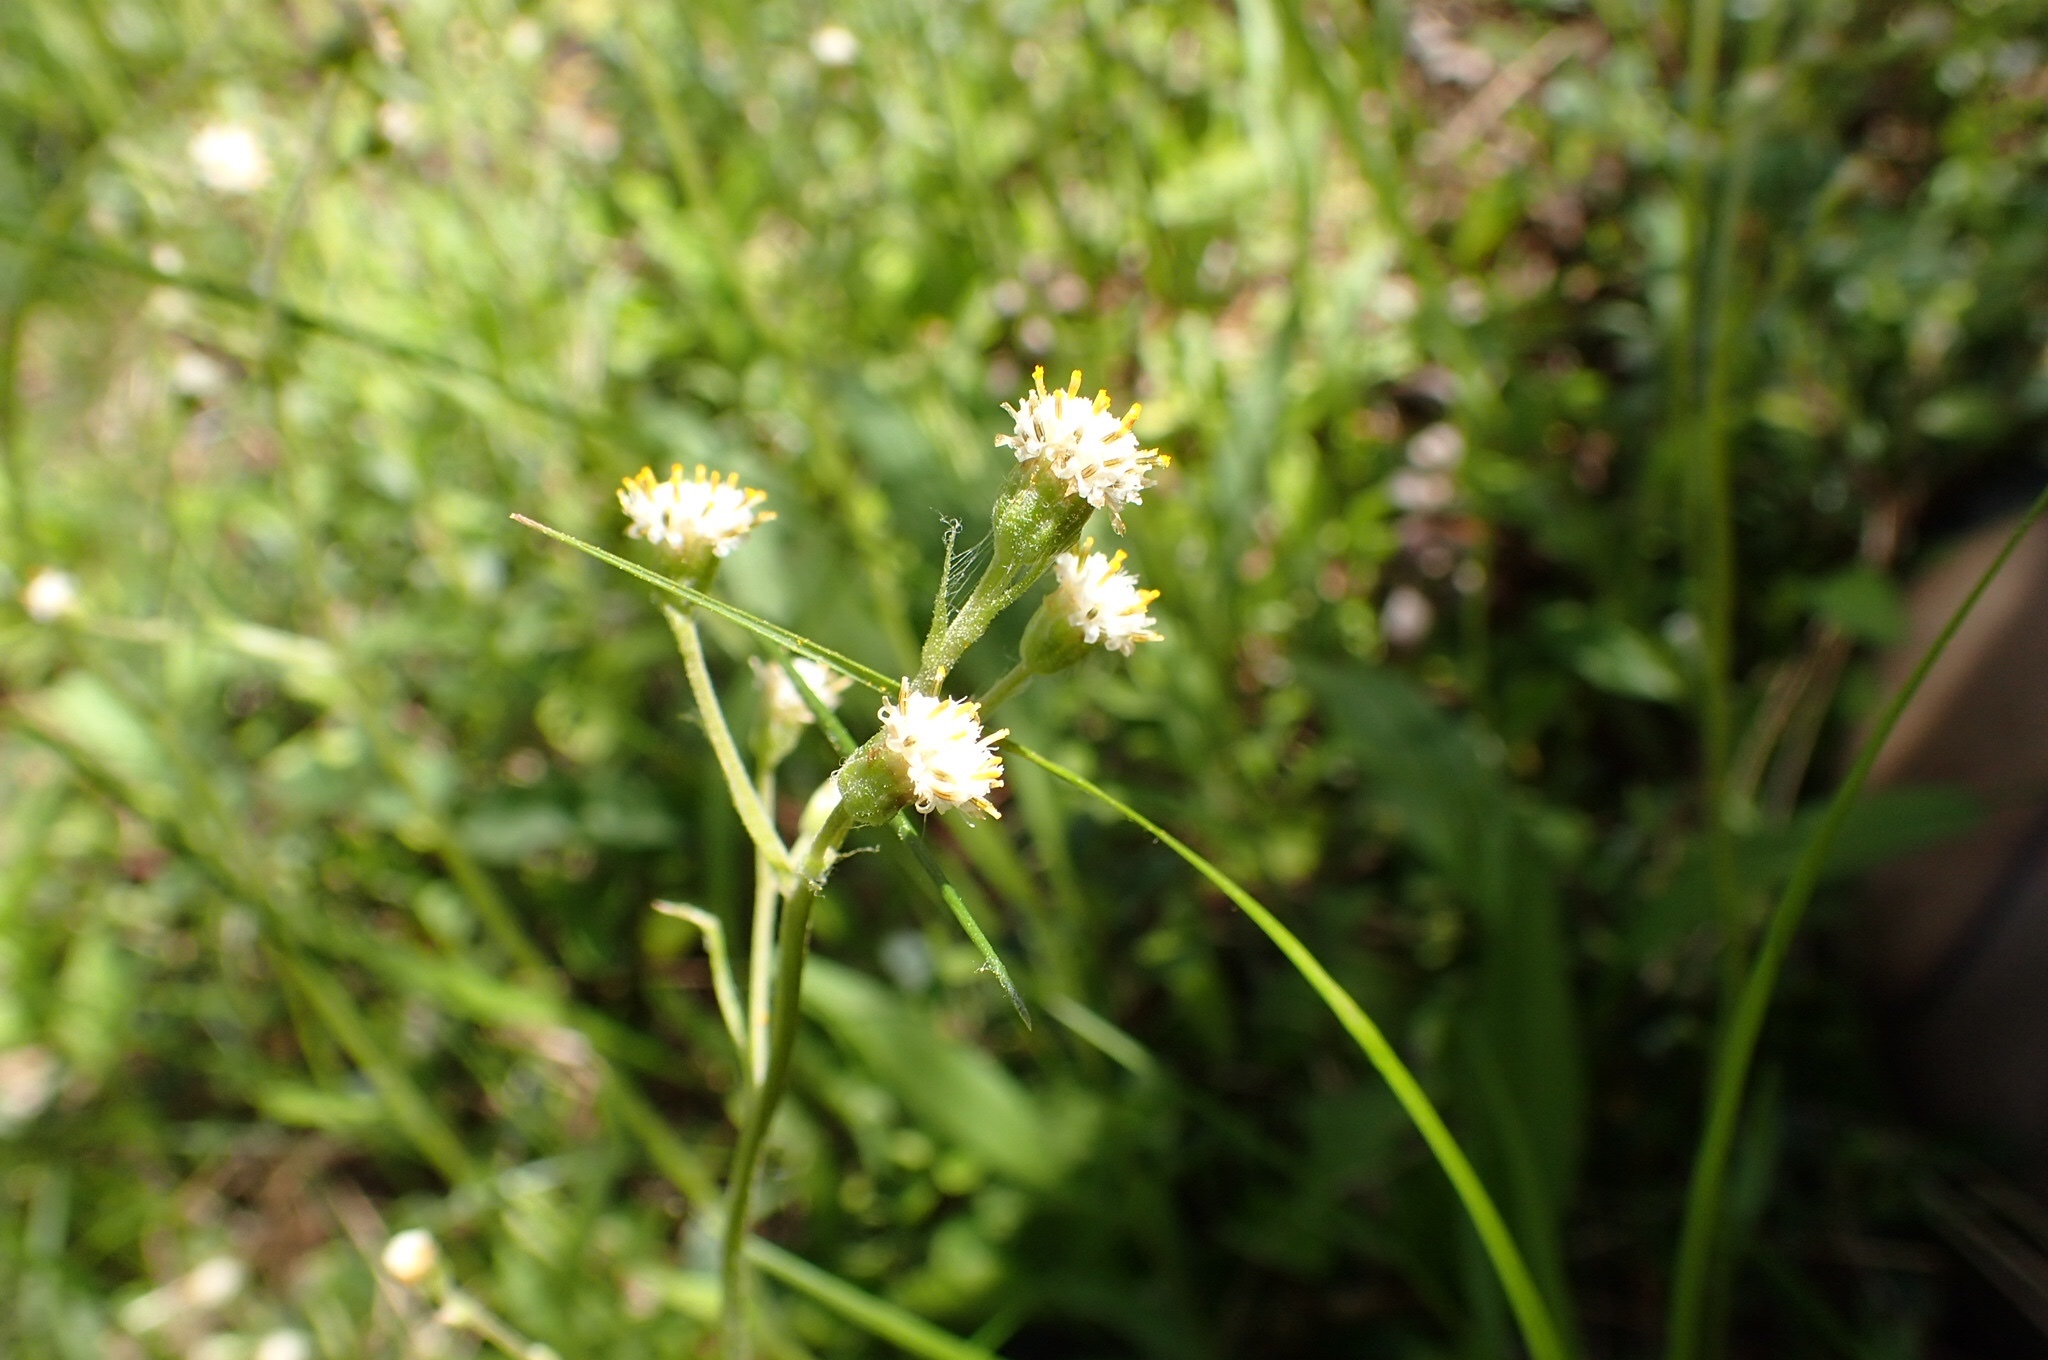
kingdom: Plantae
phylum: Tracheophyta
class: Magnoliopsida
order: Asterales
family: Asteraceae
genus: Antennaria
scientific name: Antennaria racemosa
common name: Racemose pussytoes
